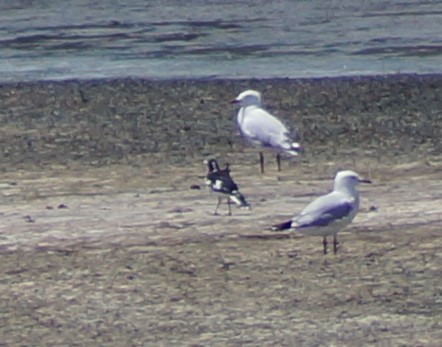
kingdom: Animalia
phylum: Chordata
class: Aves
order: Passeriformes
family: Monarchidae
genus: Grallina
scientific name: Grallina cyanoleuca
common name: Magpie-lark
